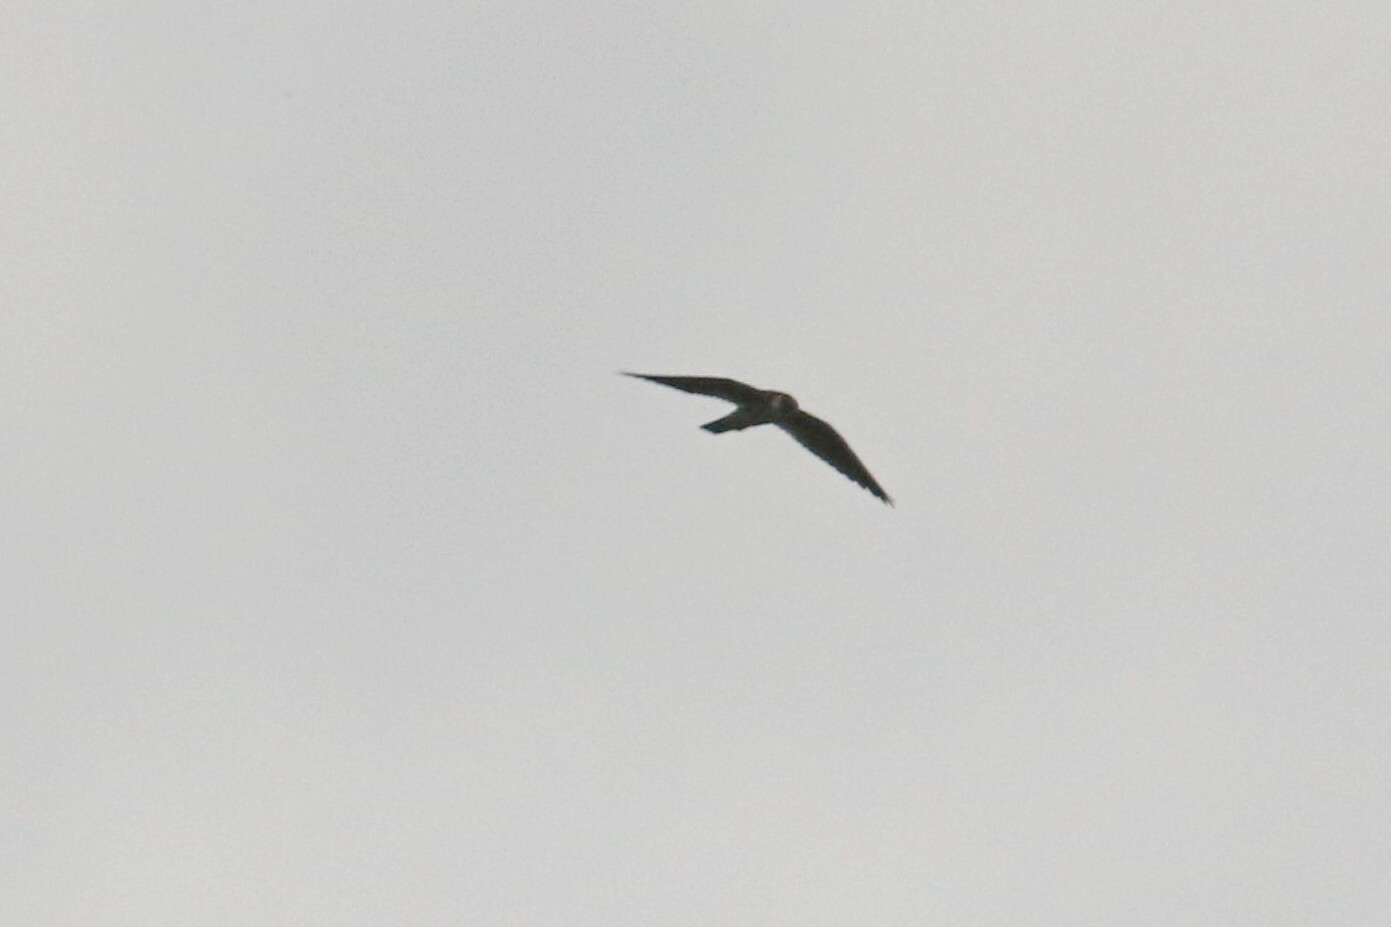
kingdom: Animalia
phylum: Chordata
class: Aves
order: Falconiformes
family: Falconidae
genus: Falco
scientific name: Falco subbuteo
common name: Eurasian hobby
